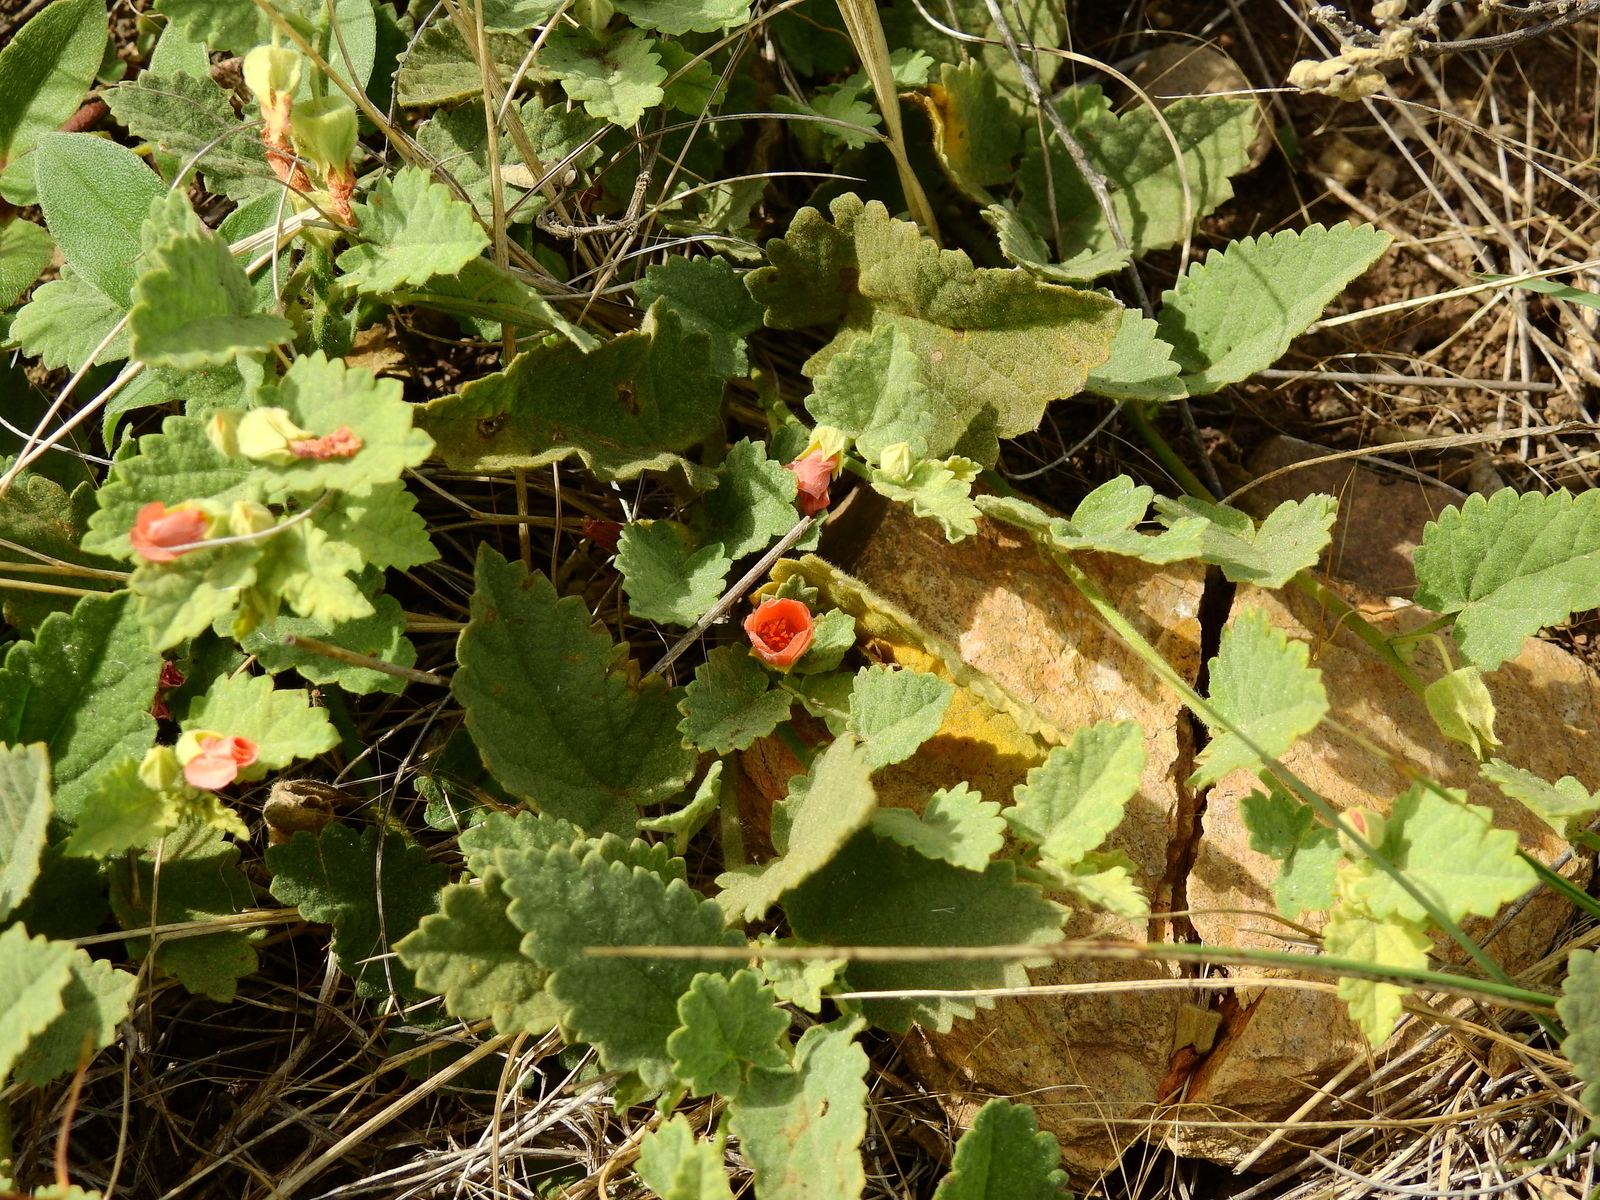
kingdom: Plantae
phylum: Tracheophyta
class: Magnoliopsida
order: Malvales
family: Malvaceae
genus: Krapovickasia
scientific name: Krapovickasia flavescens
